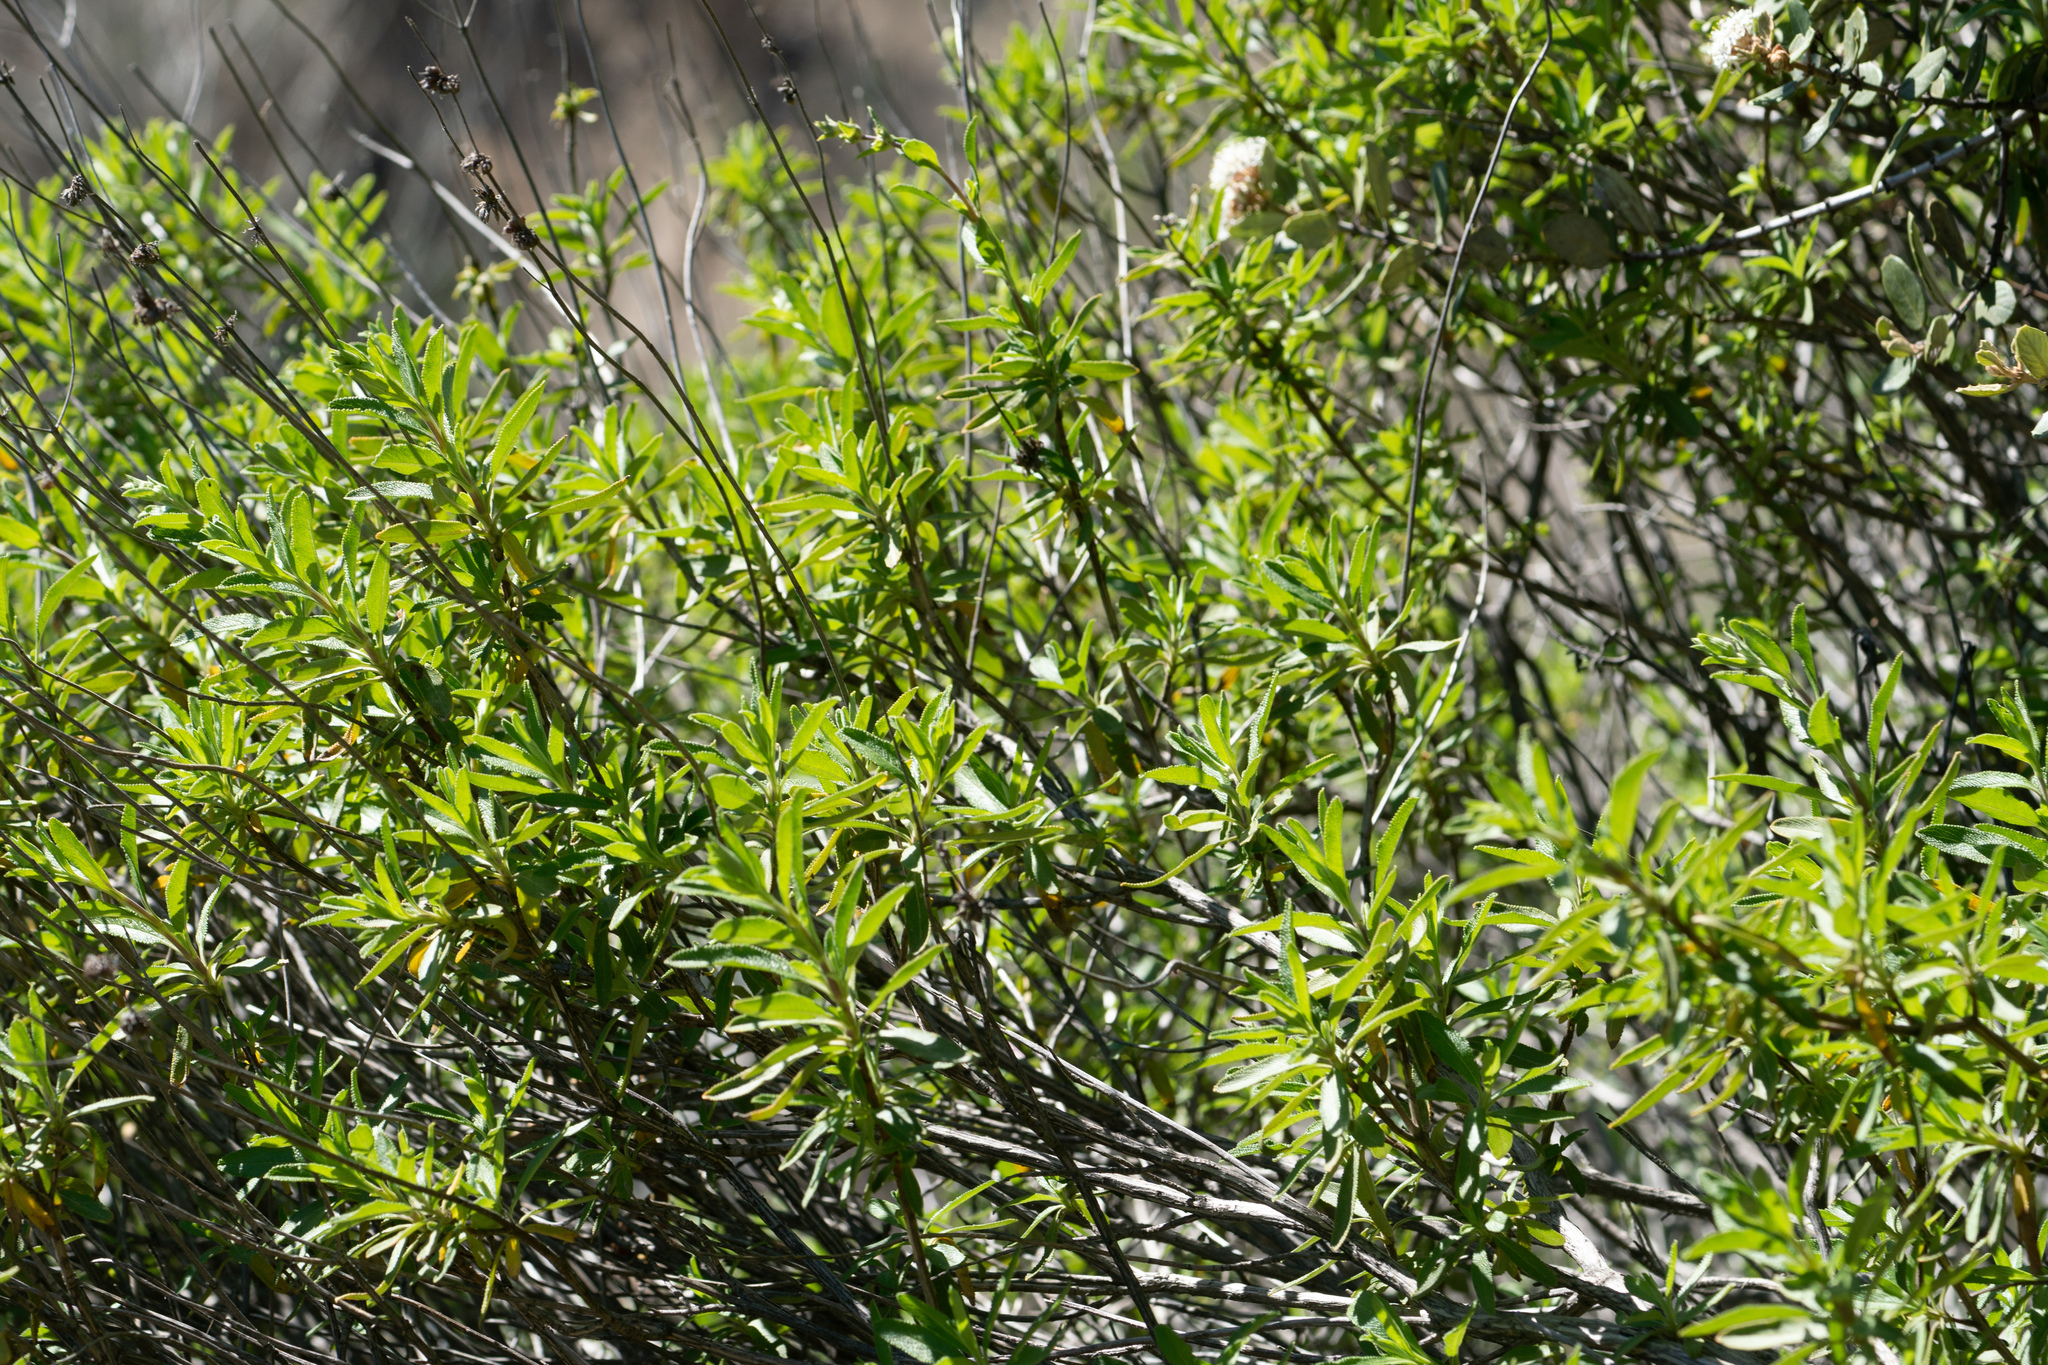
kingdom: Plantae
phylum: Tracheophyta
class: Magnoliopsida
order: Lamiales
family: Lamiaceae
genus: Salvia
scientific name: Salvia mellifera
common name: Black sage
